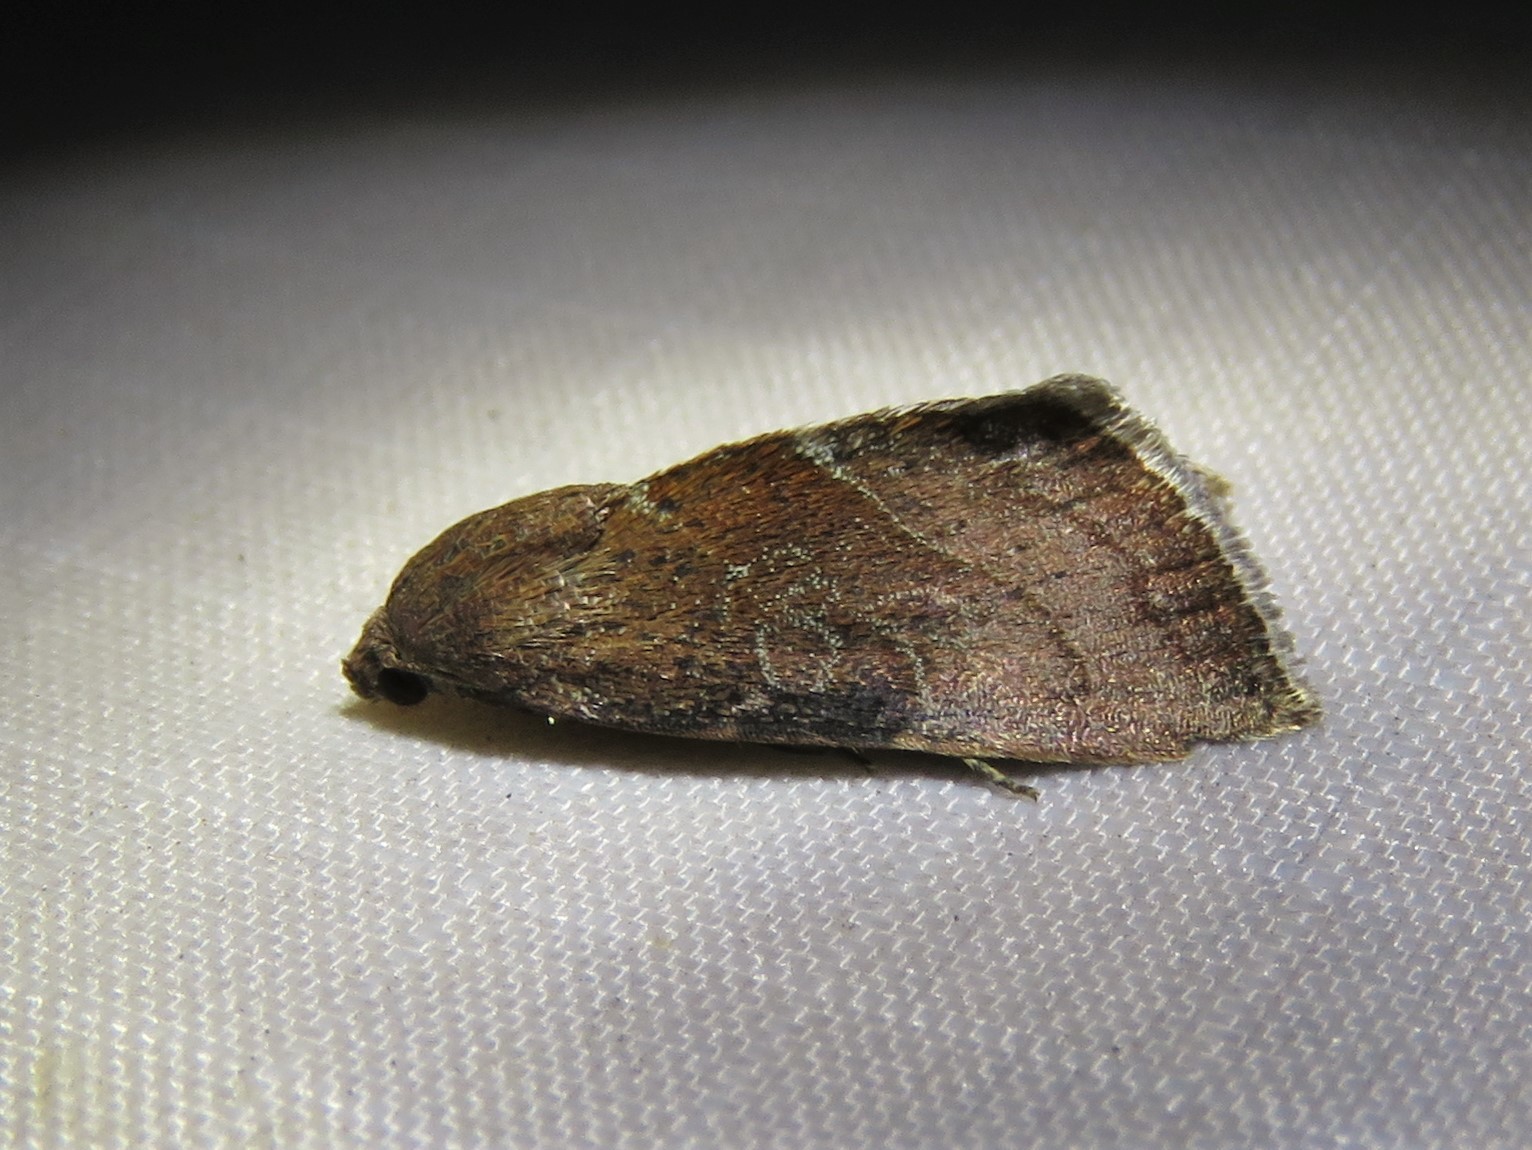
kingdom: Animalia
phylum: Arthropoda
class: Insecta
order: Lepidoptera
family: Noctuidae
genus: Galgula
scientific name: Galgula partita
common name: Wedgeling
